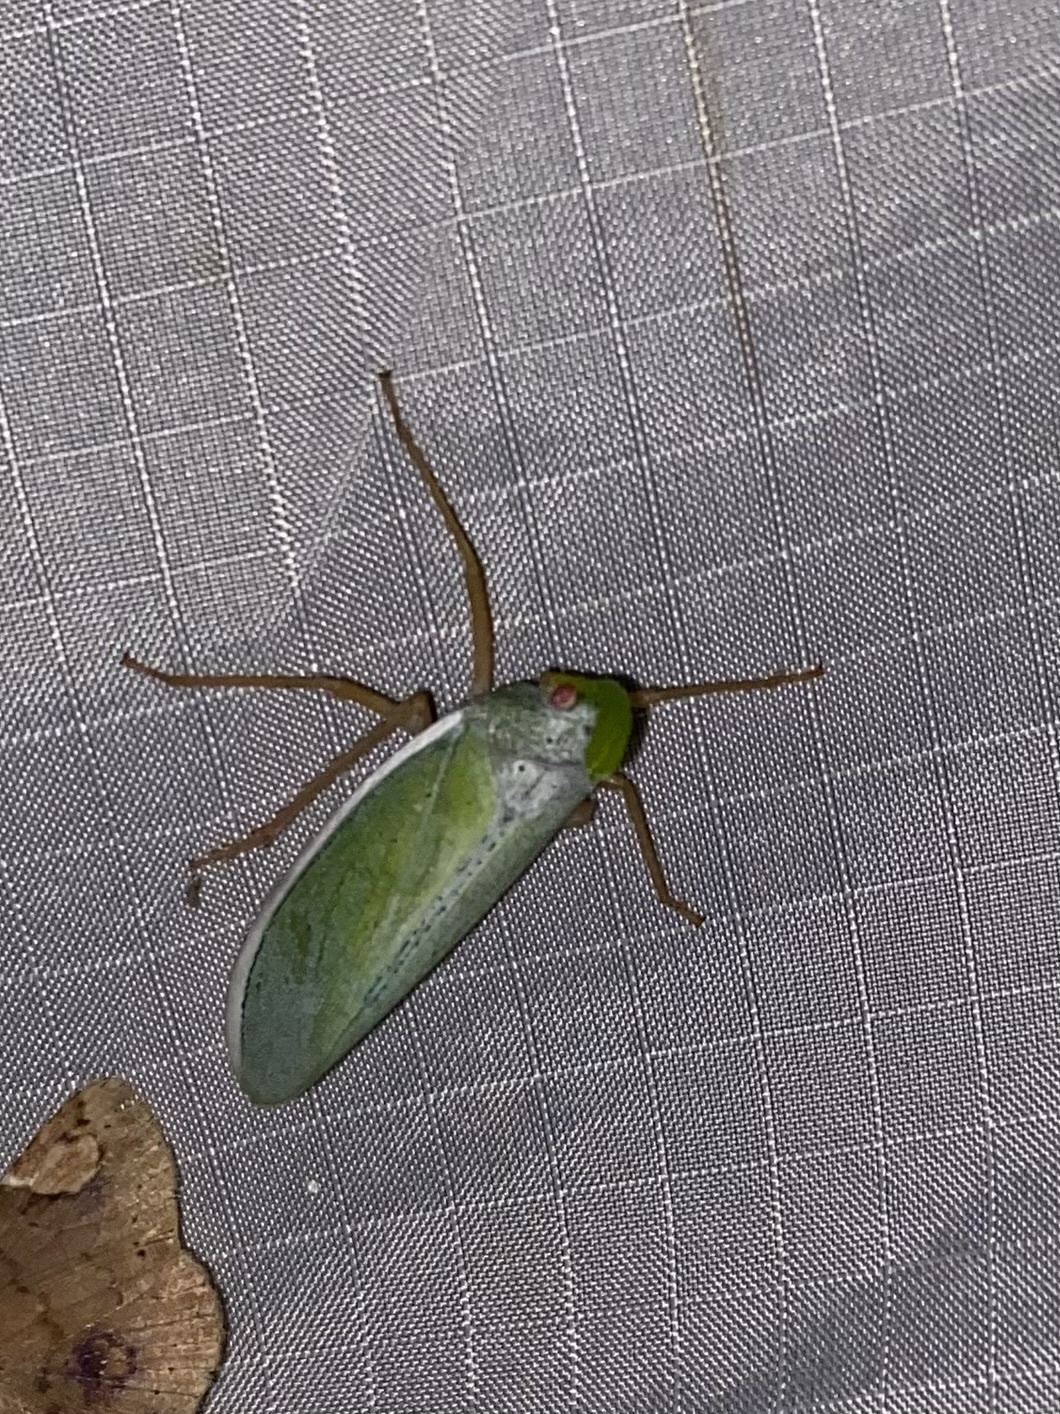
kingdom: Animalia
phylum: Arthropoda
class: Insecta
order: Hemiptera
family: Fulgoridae
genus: Enchophora
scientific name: Enchophora prasina
